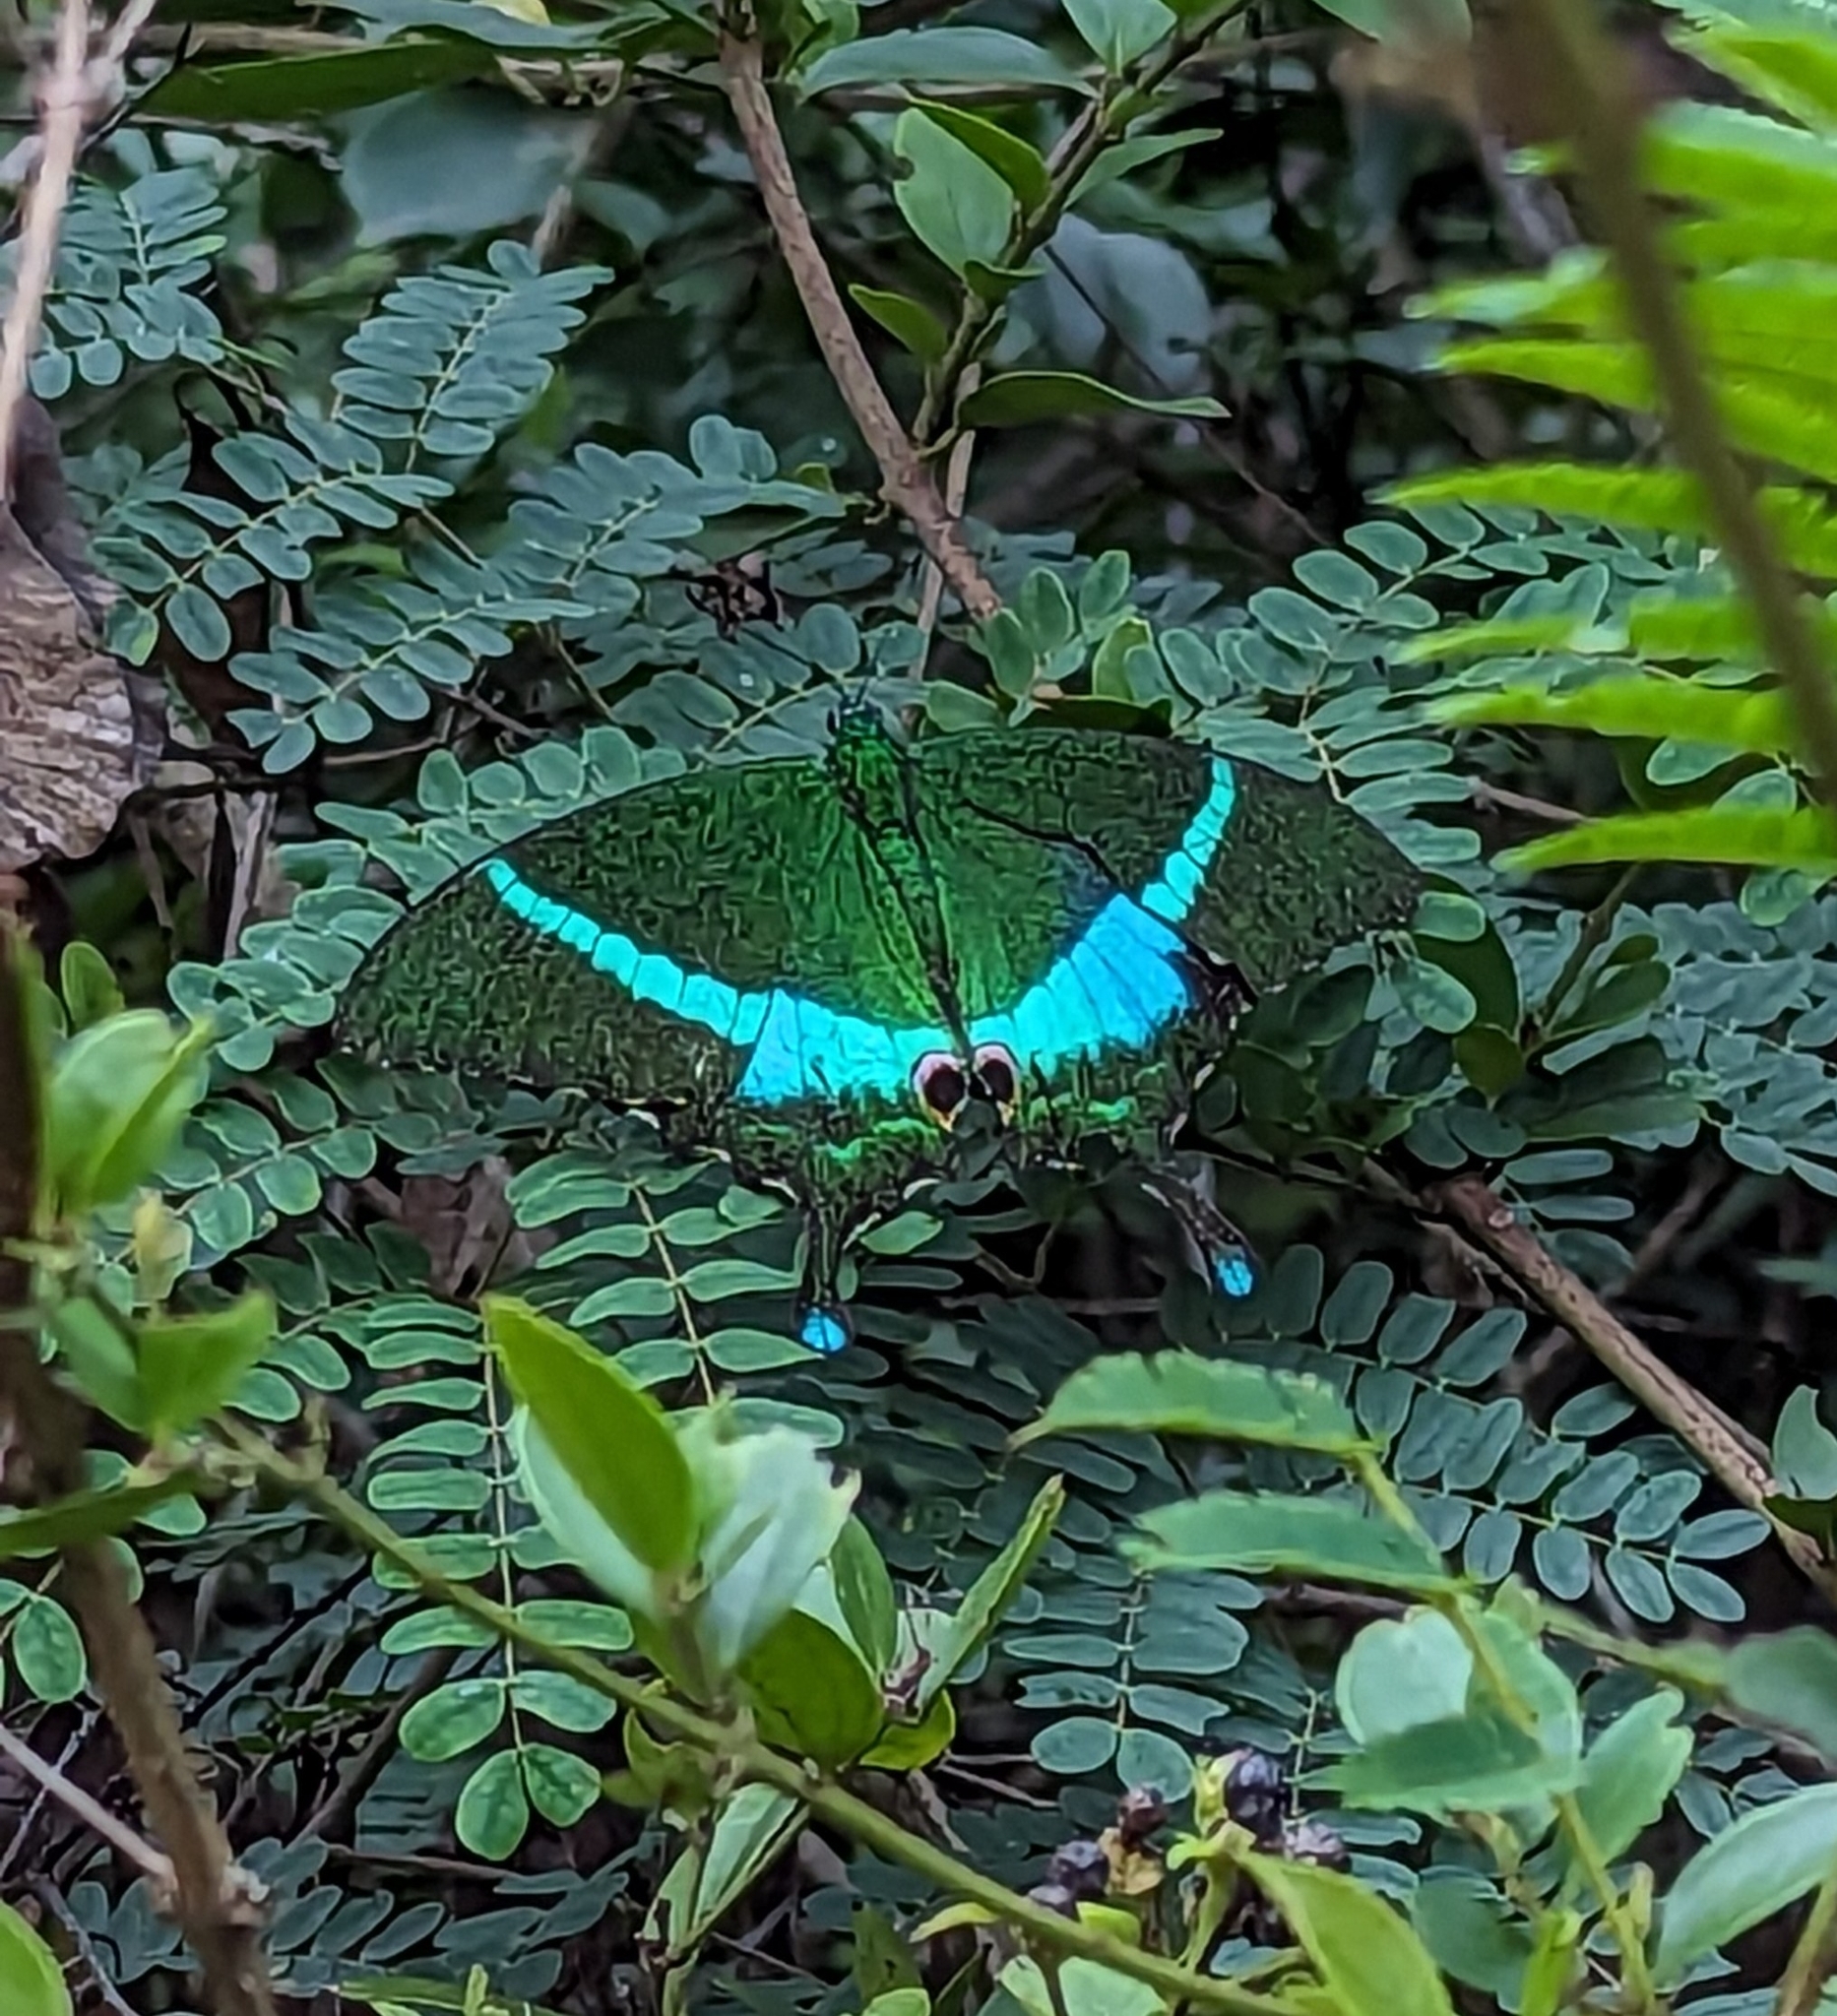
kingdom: Animalia
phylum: Arthropoda
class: Insecta
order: Lepidoptera
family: Papilionidae
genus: Papilio
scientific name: Papilio crino
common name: Common banded peacock
